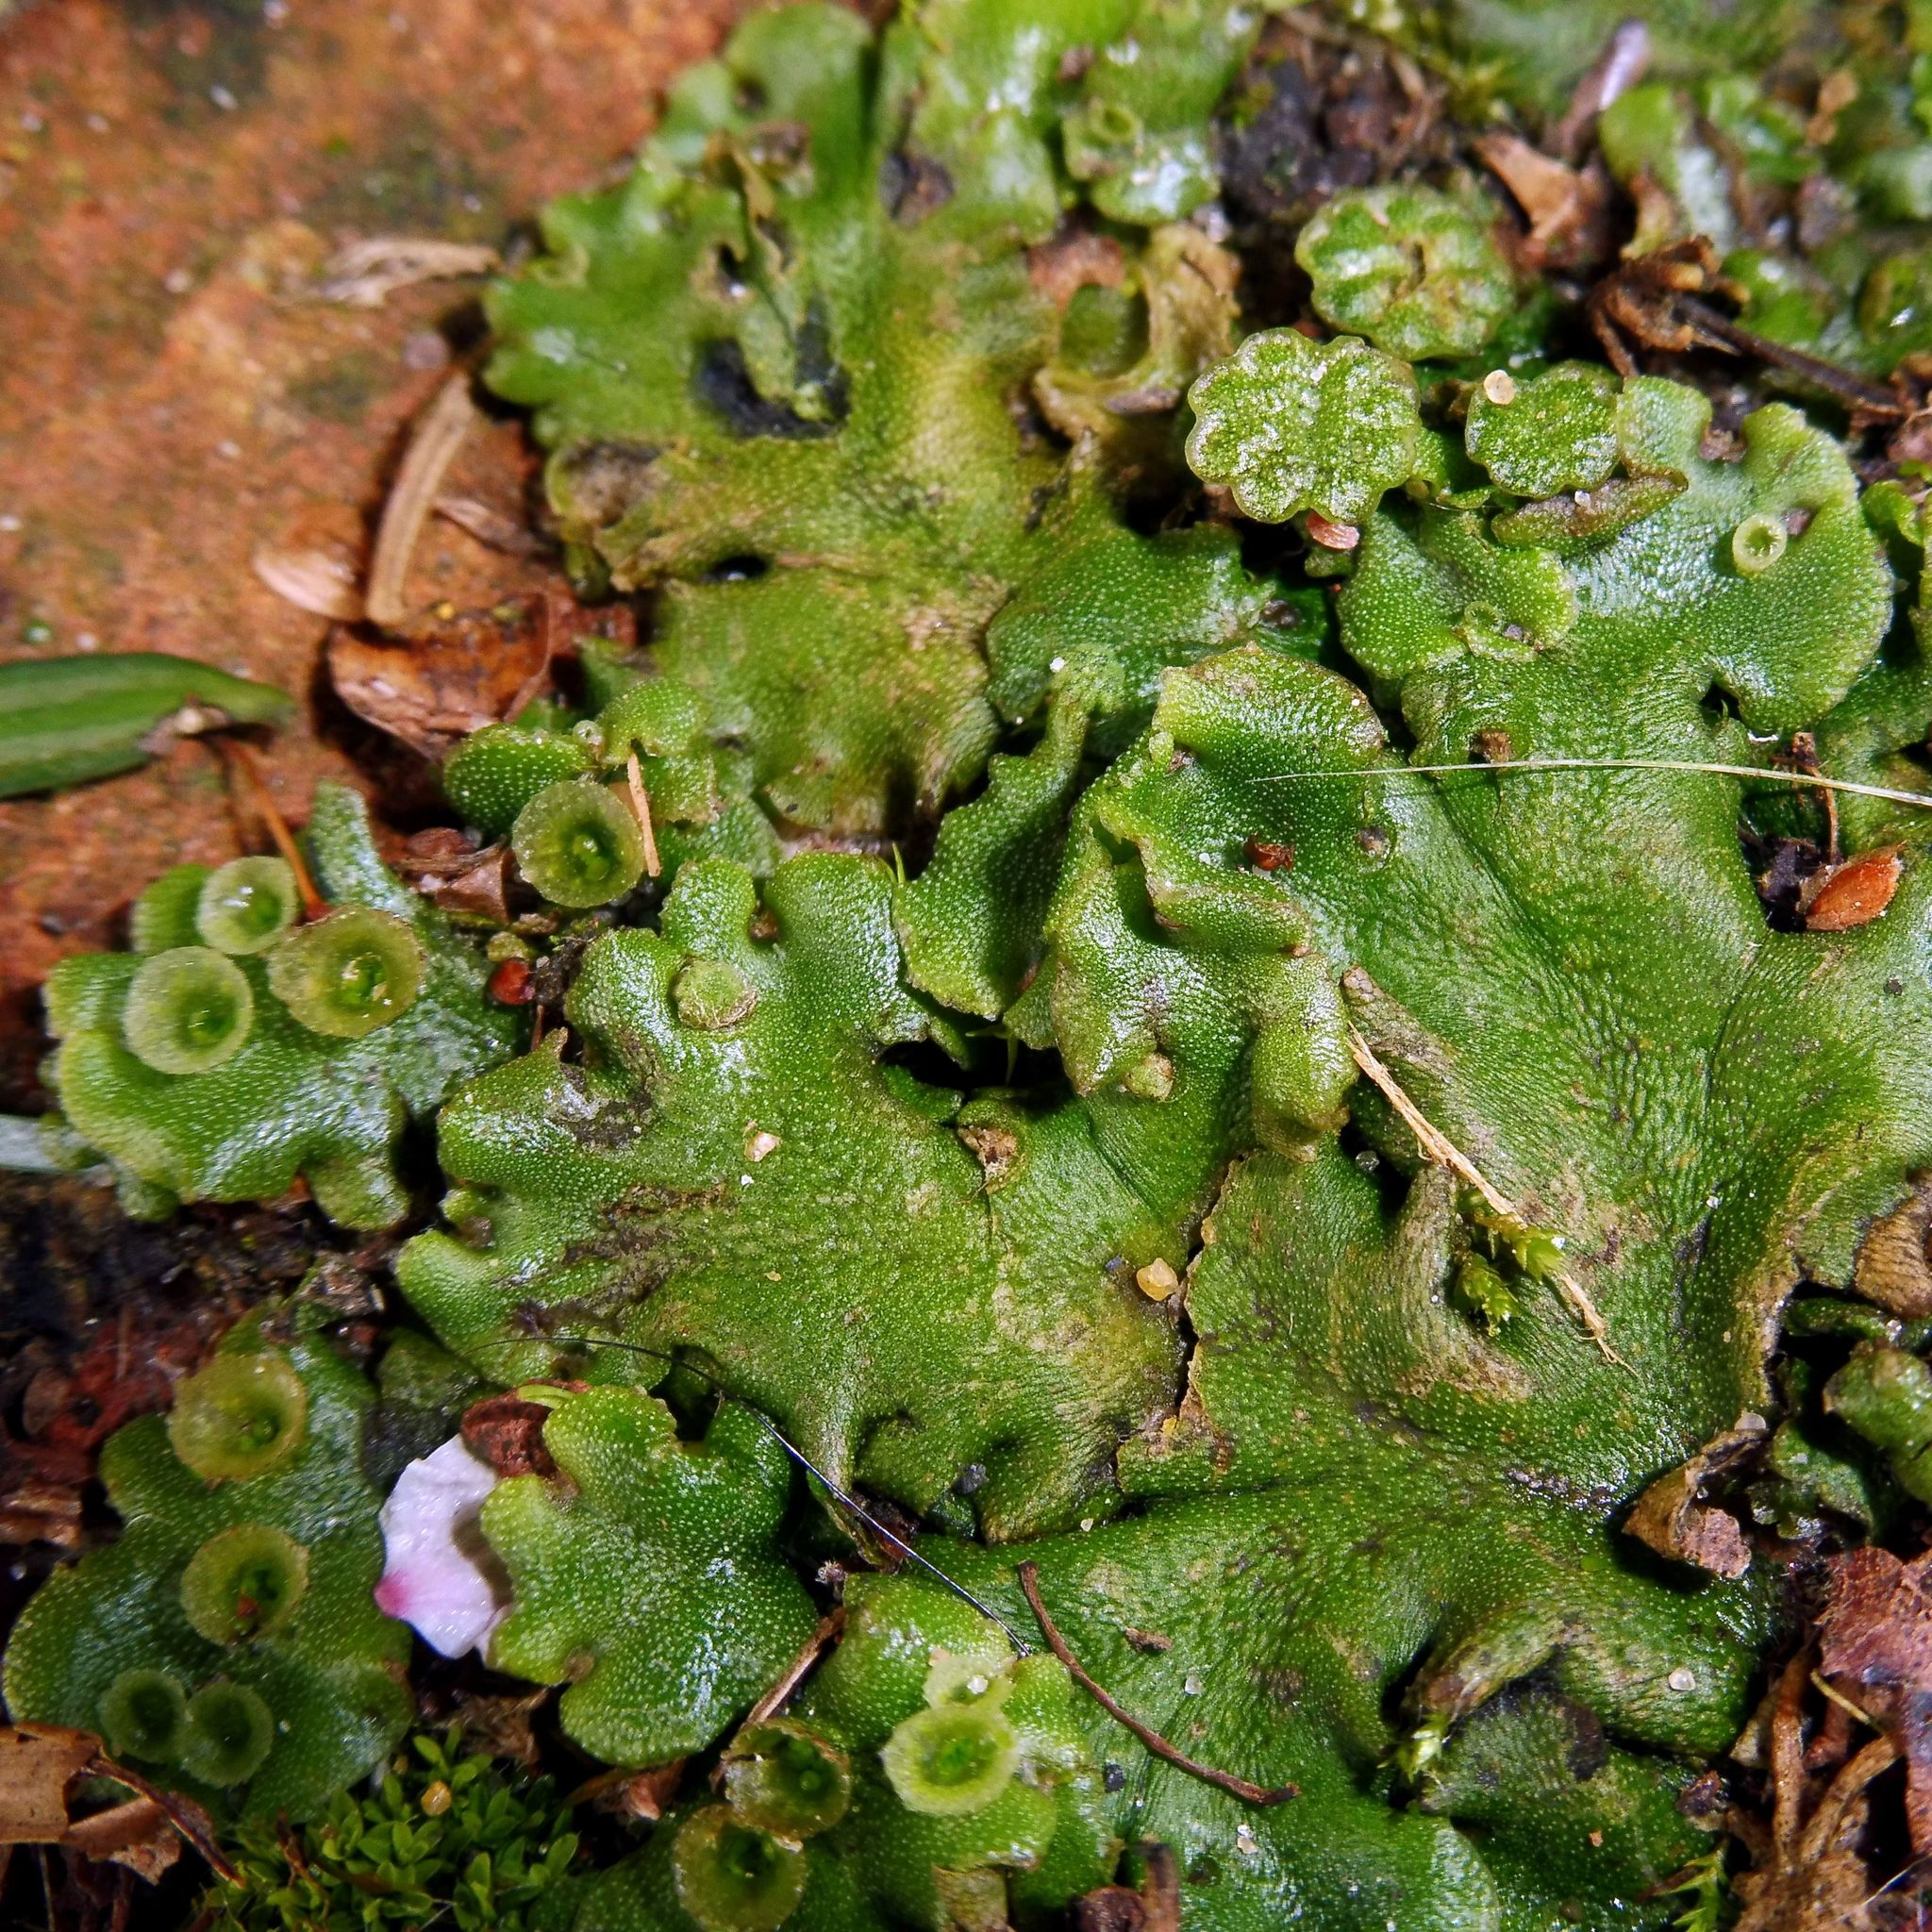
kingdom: Plantae
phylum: Marchantiophyta
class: Marchantiopsida
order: Marchantiales
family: Marchantiaceae
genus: Marchantia
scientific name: Marchantia polymorpha
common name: Common liverwort
